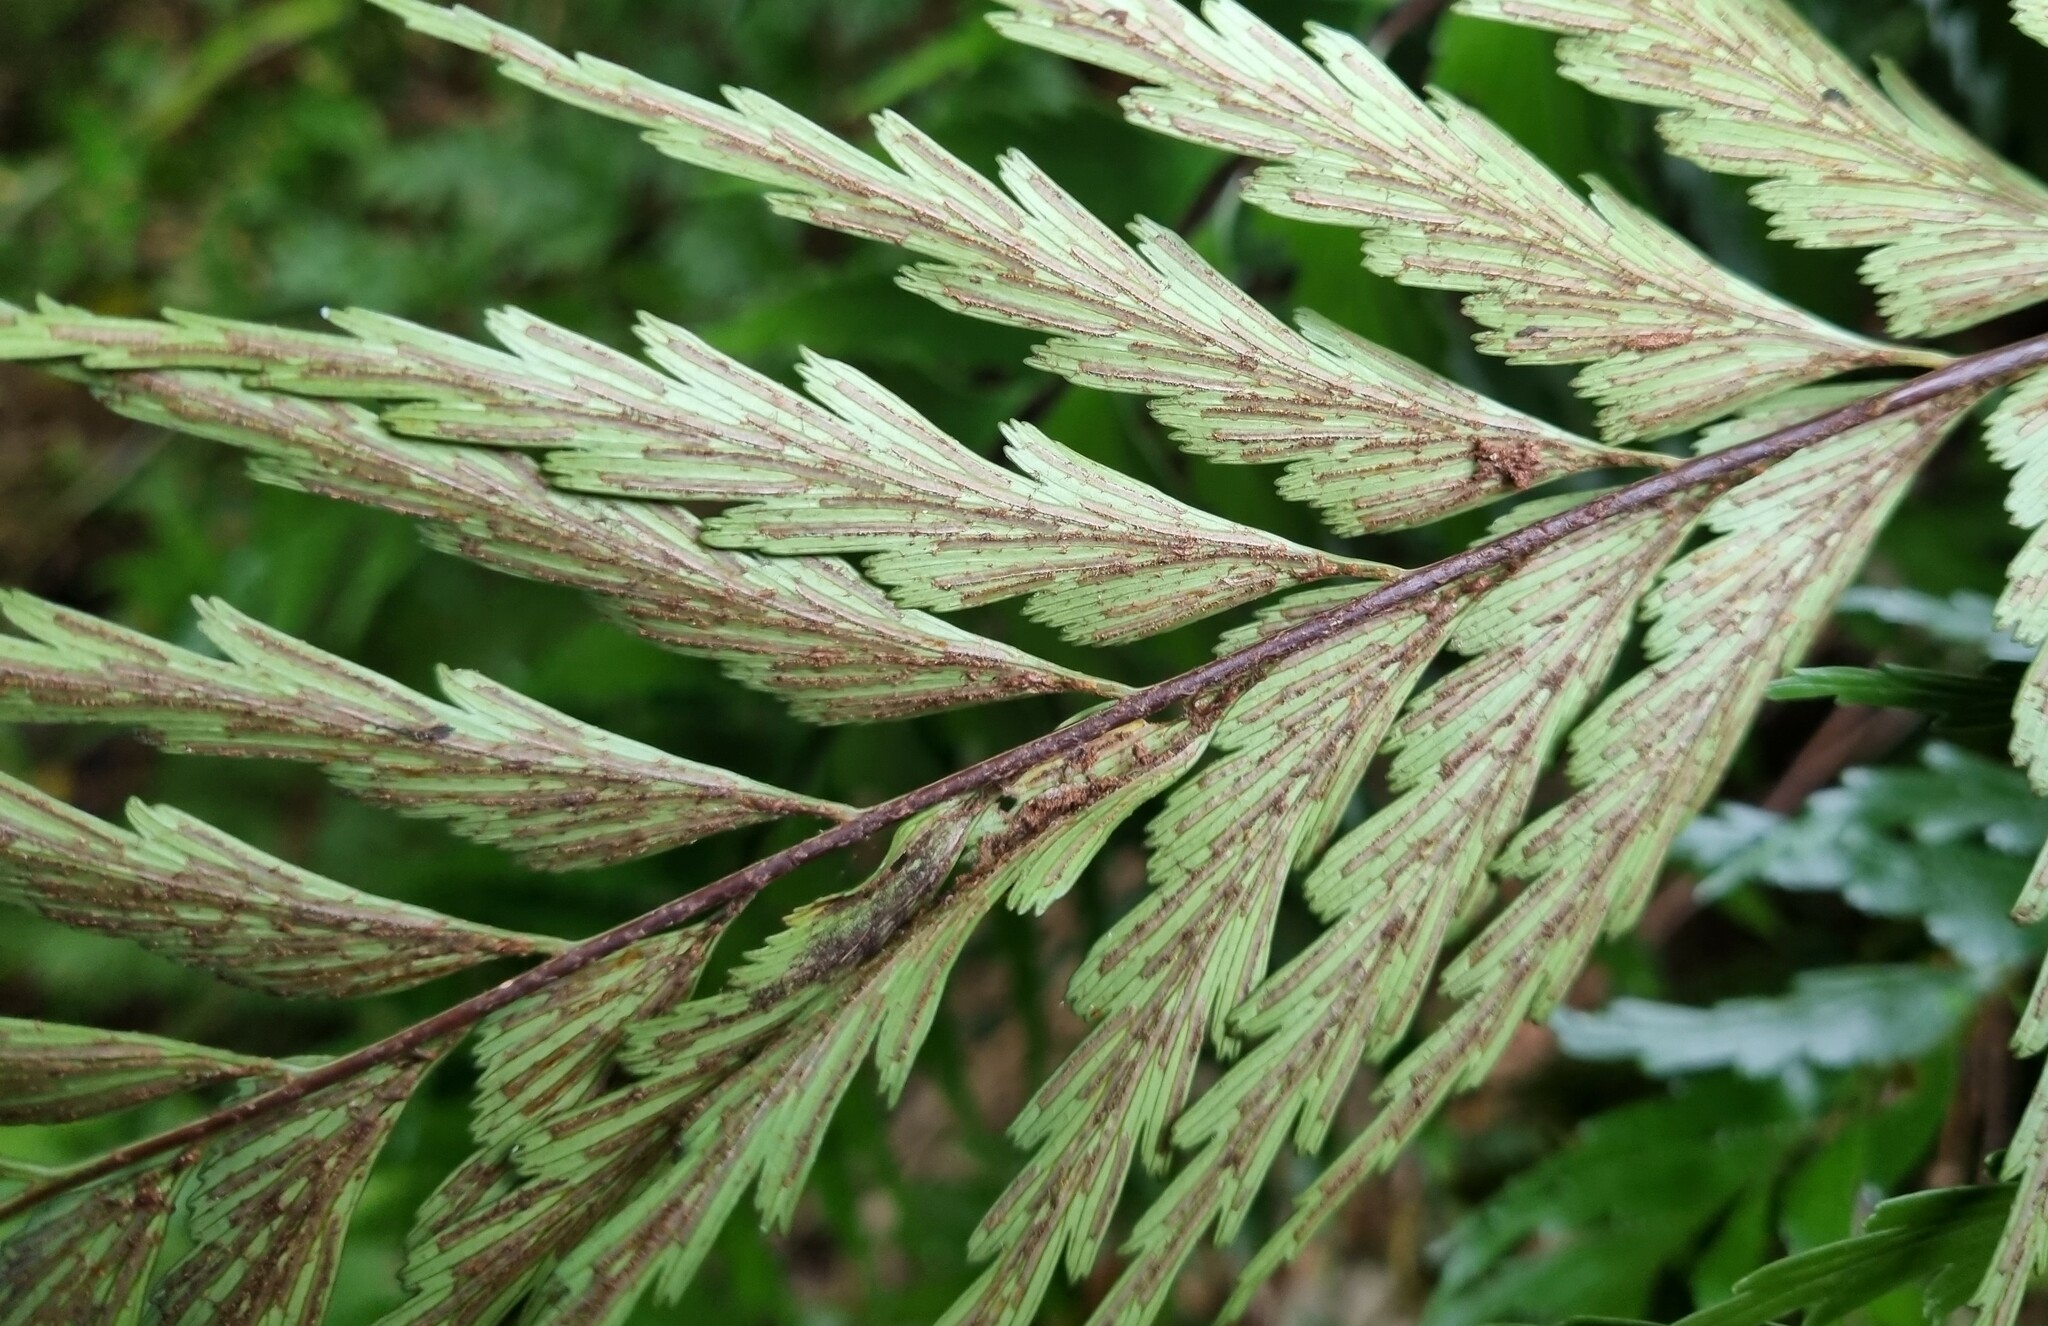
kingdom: Plantae
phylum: Tracheophyta
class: Polypodiopsida
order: Polypodiales
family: Aspleniaceae
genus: Asplenium
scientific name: Asplenium polyodon
